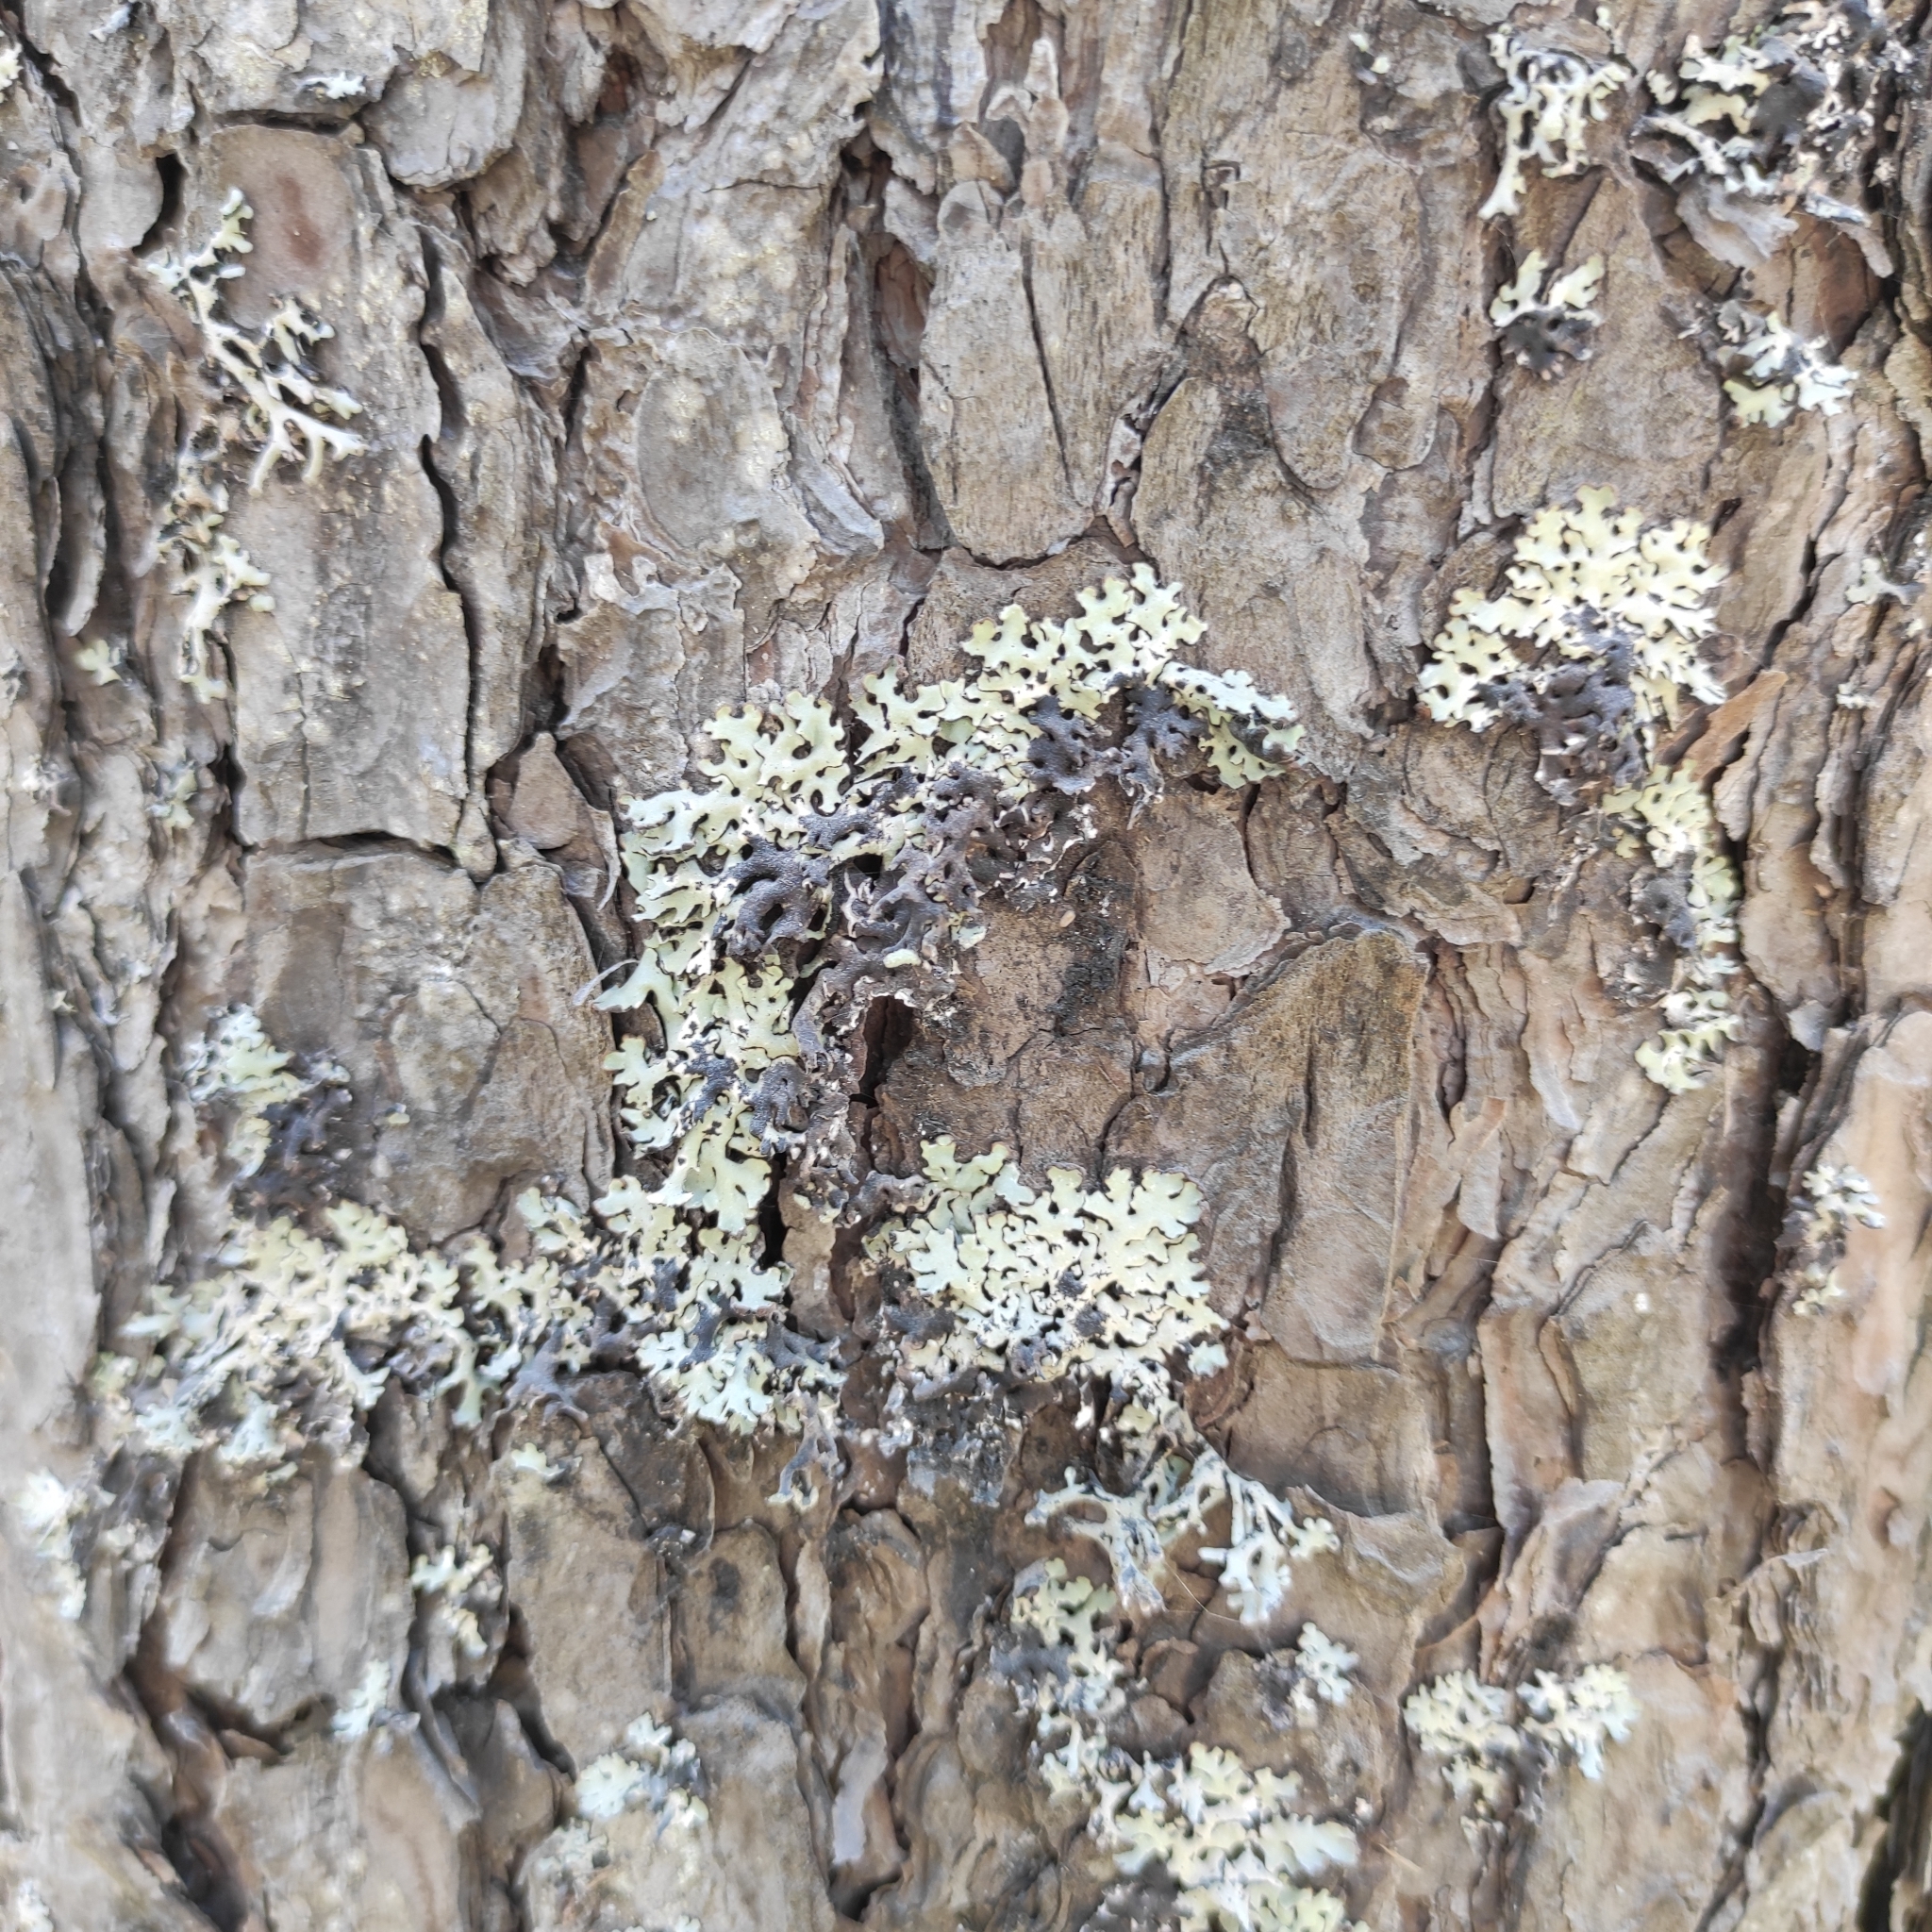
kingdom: Fungi
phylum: Ascomycota
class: Lecanoromycetes
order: Lecanorales
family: Parmeliaceae
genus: Hypogymnia
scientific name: Hypogymnia physodes
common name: Dark crottle
